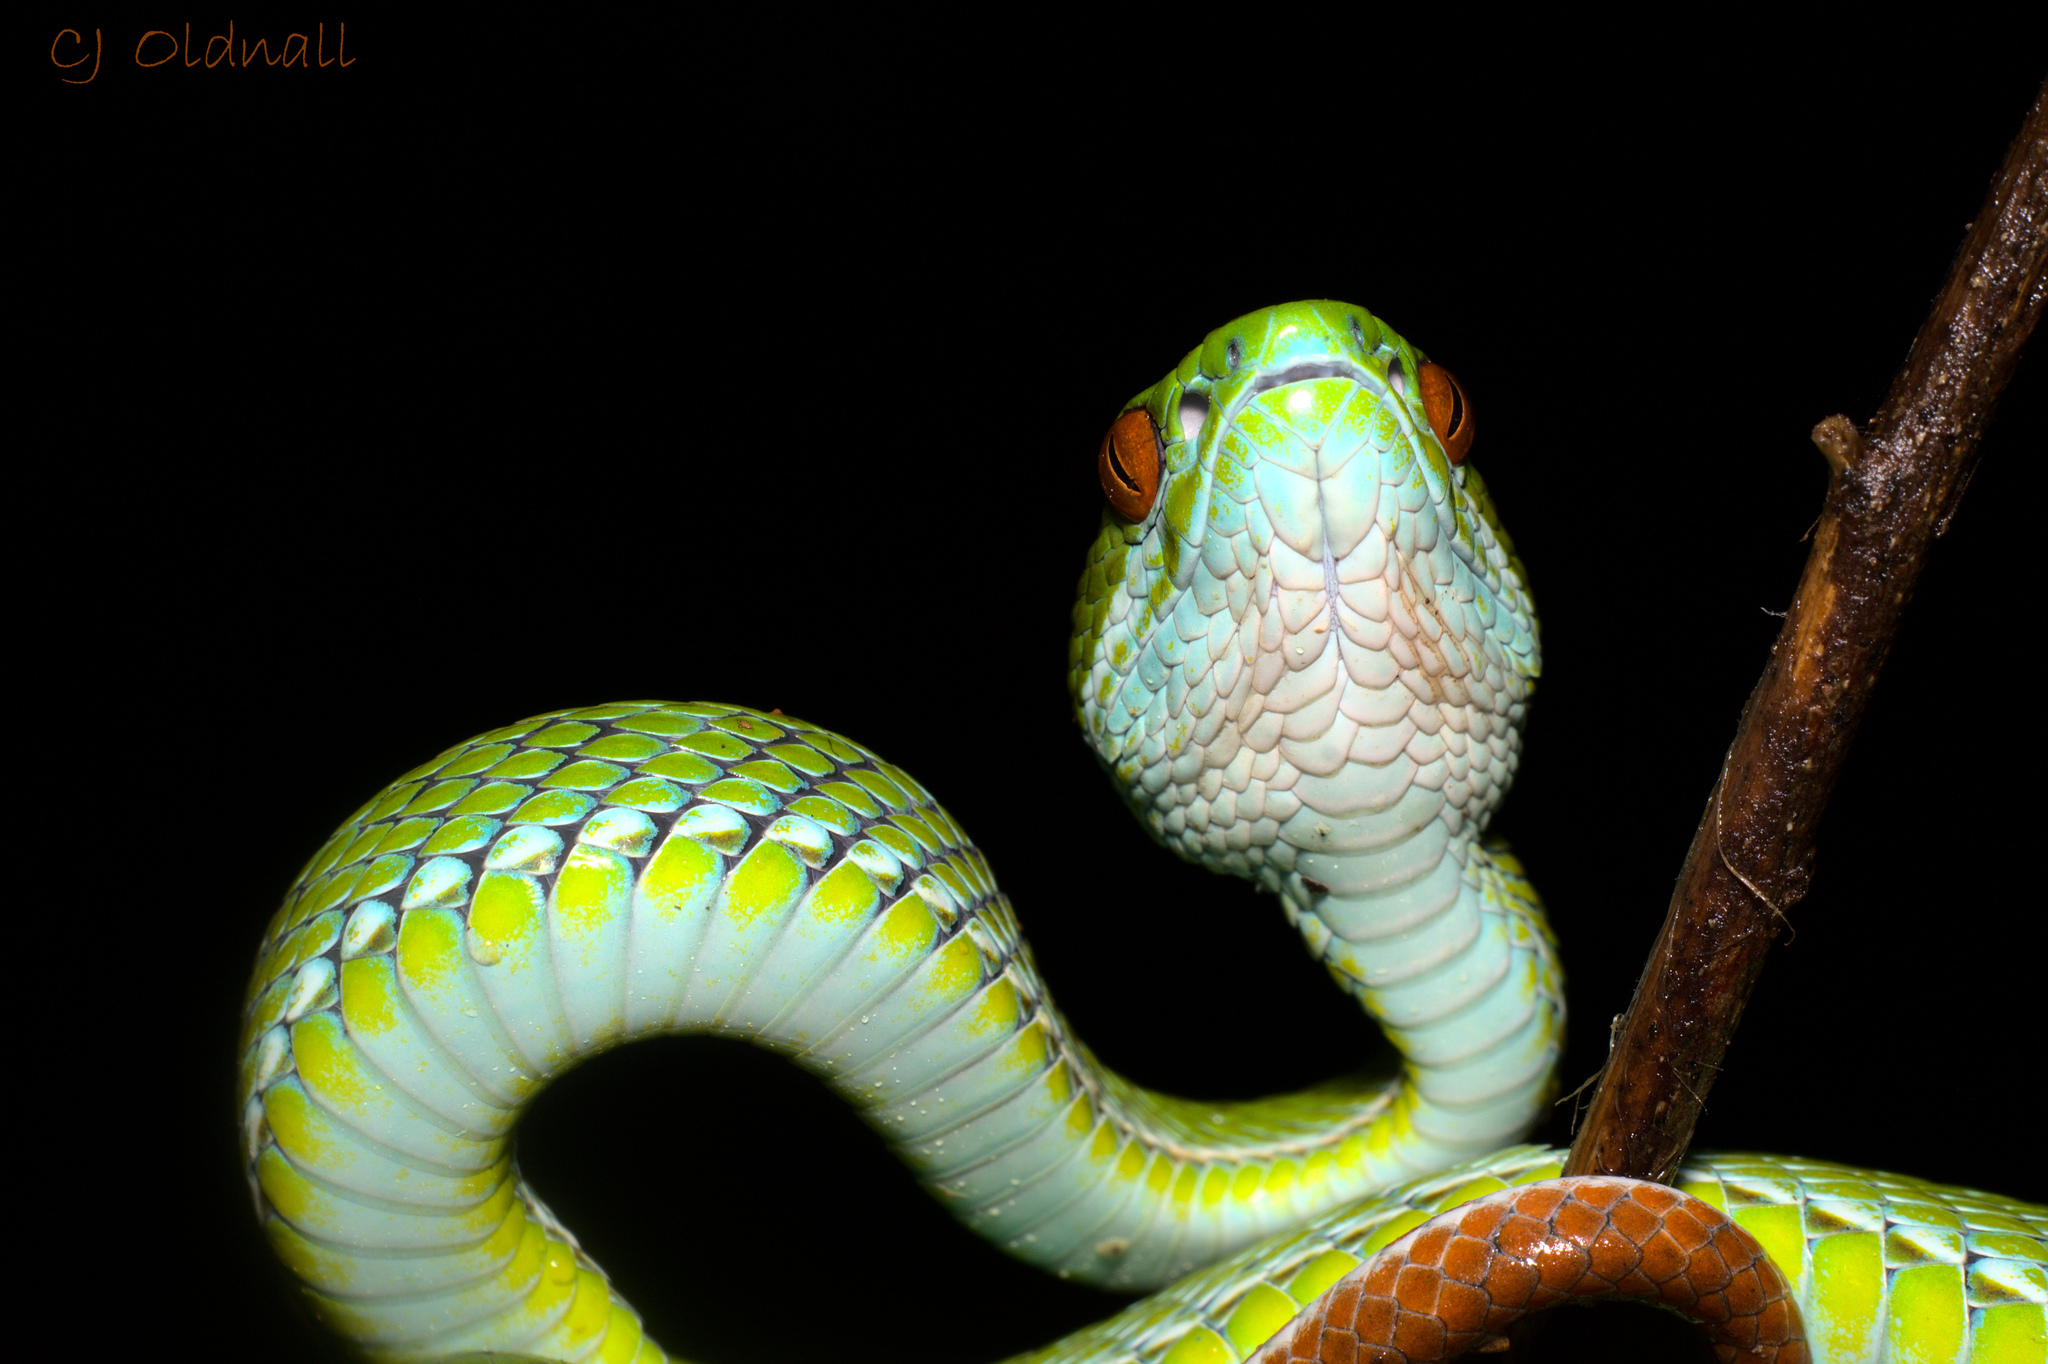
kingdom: Animalia
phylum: Chordata
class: Squamata
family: Viperidae
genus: Craspedocephalus
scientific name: Craspedocephalus rubeus
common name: Ruby-eyed green pitviper
